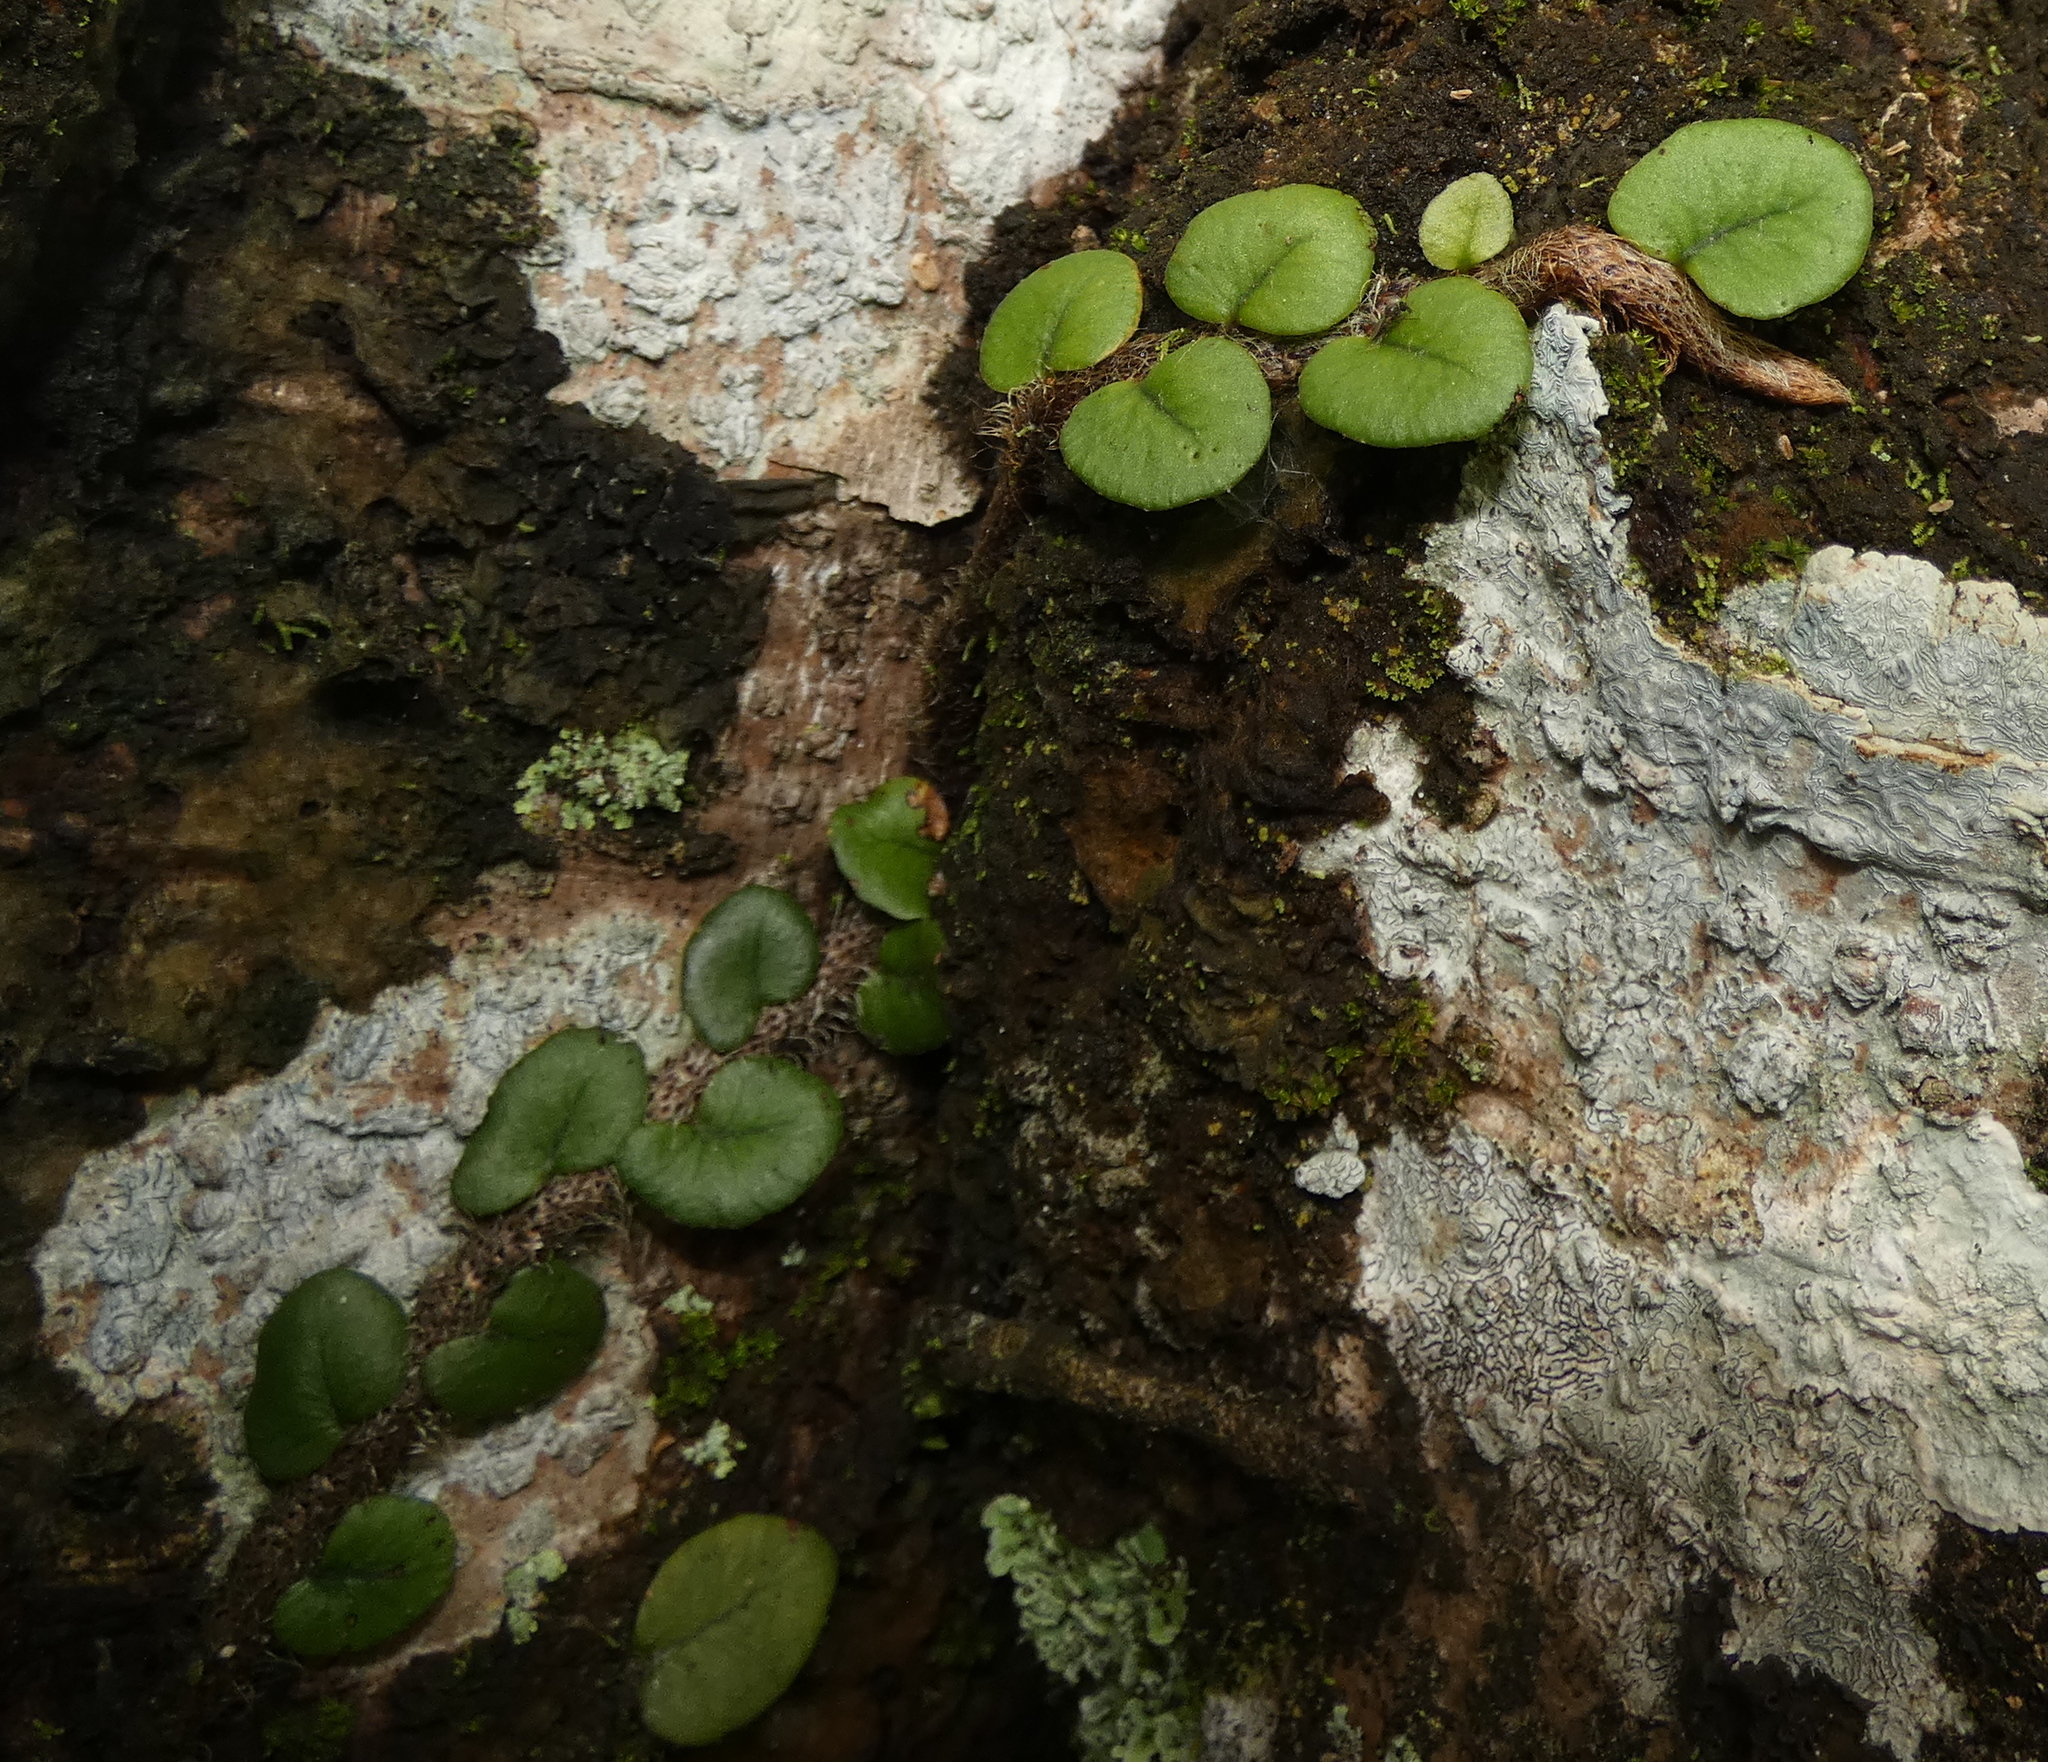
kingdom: Plantae
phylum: Tracheophyta
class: Polypodiopsida
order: Polypodiales
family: Polypodiaceae
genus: Microgramma
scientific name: Microgramma vaccinifolia
